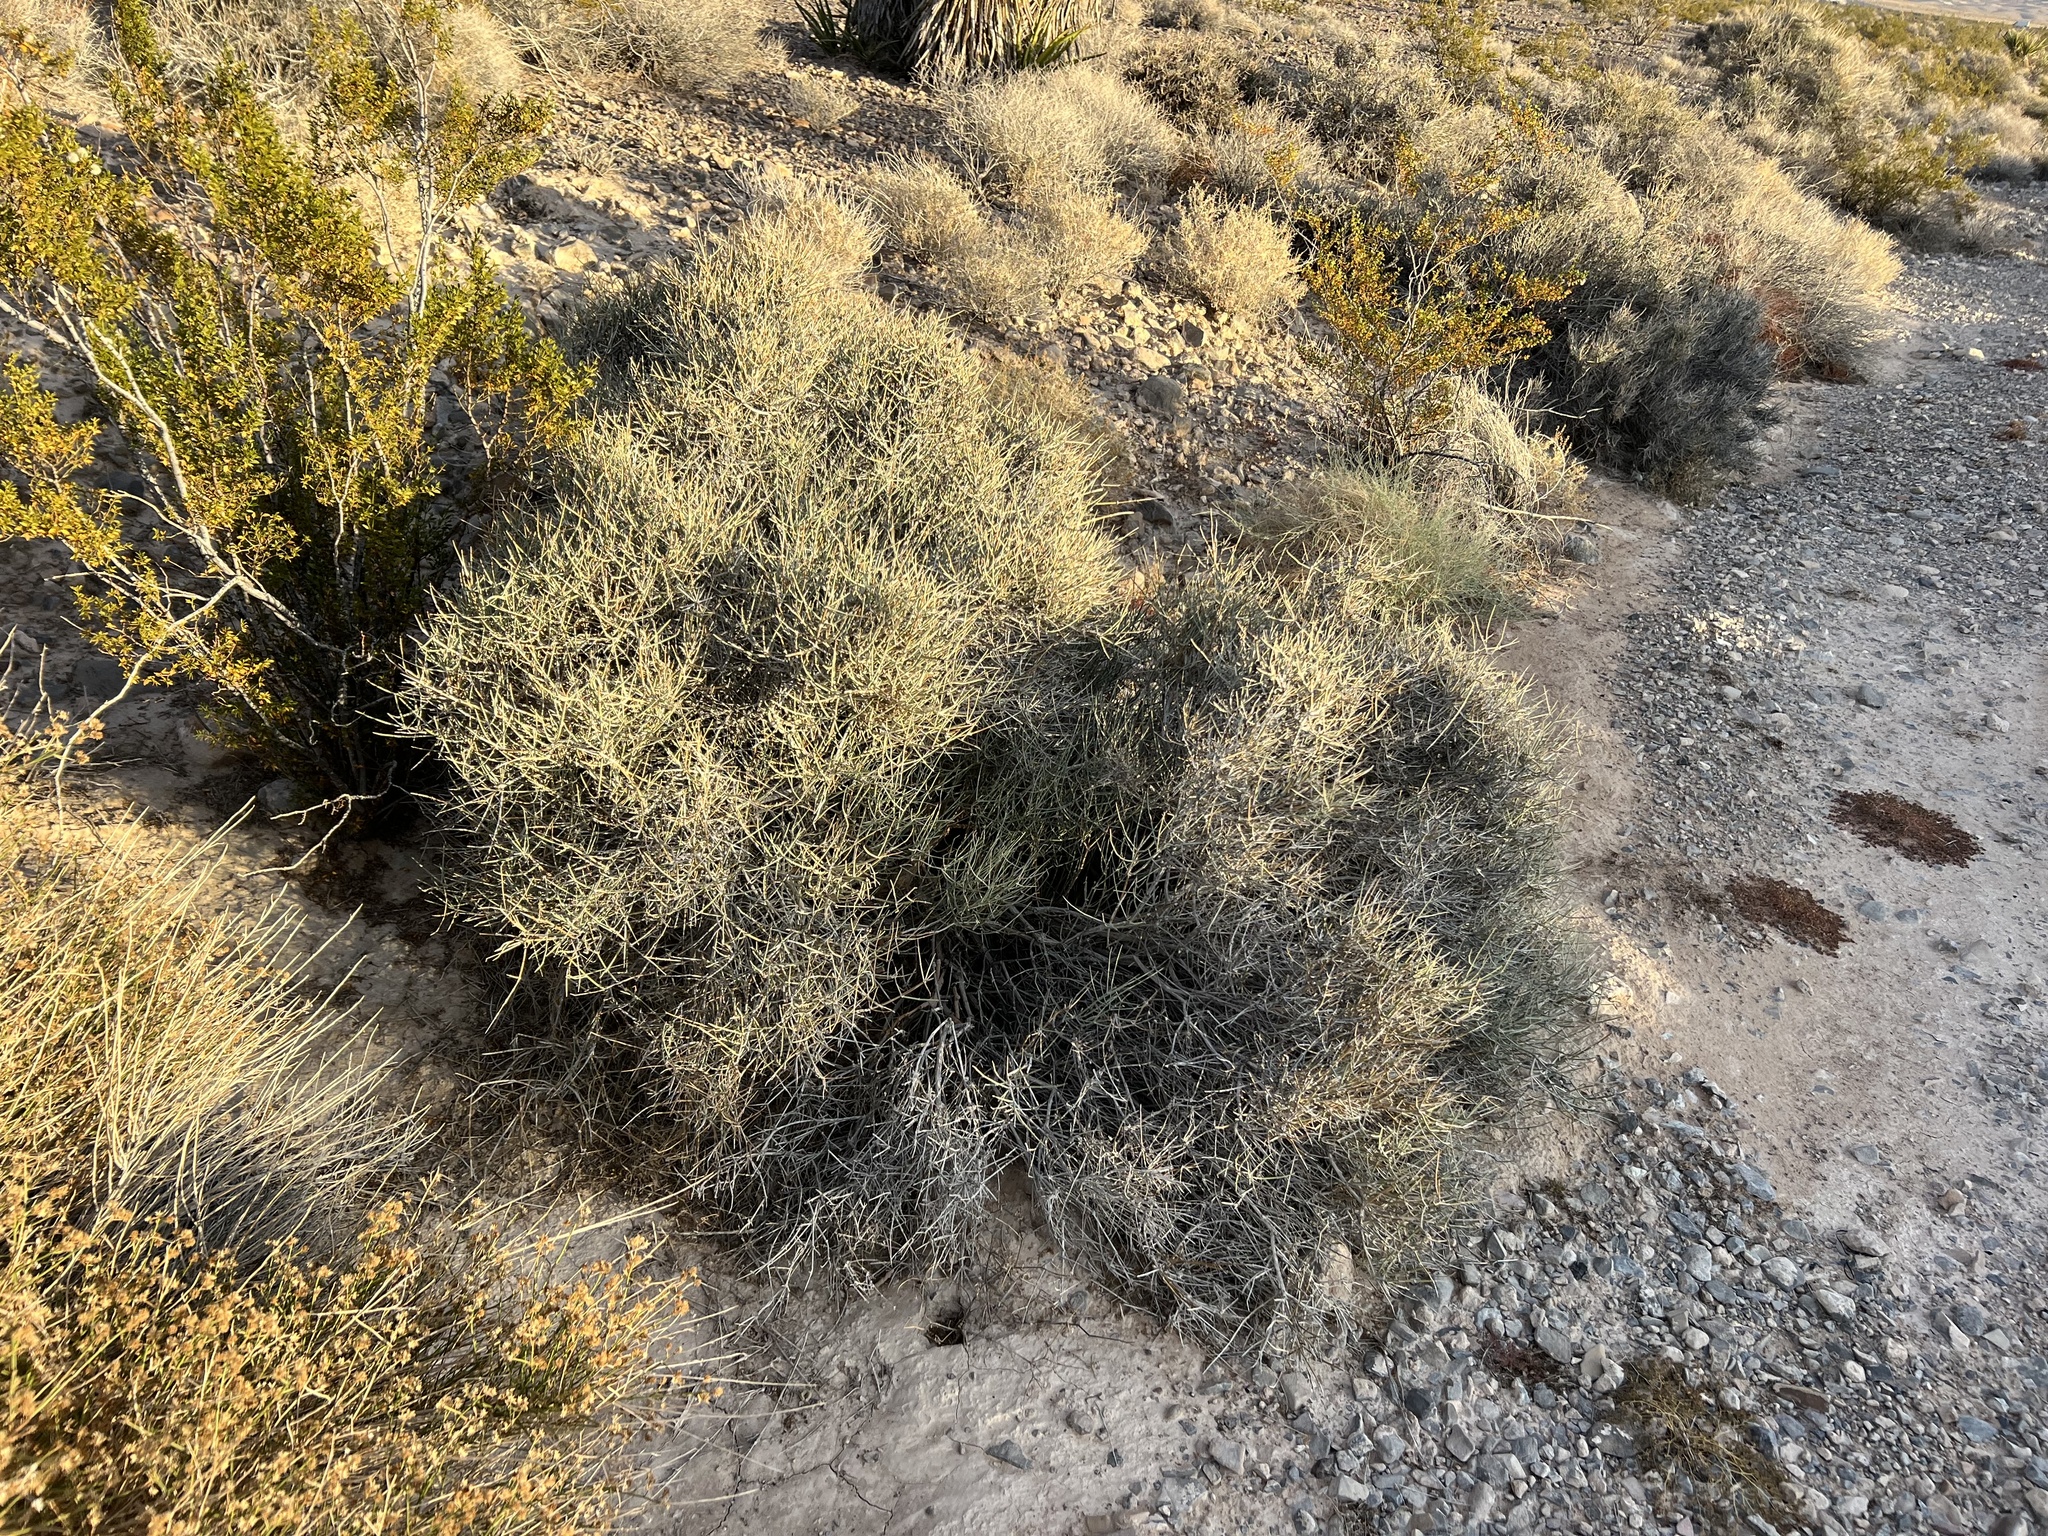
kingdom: Plantae
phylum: Tracheophyta
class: Gnetopsida
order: Ephedrales
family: Ephedraceae
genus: Ephedra
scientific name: Ephedra nevadensis
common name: Gray ephedra
